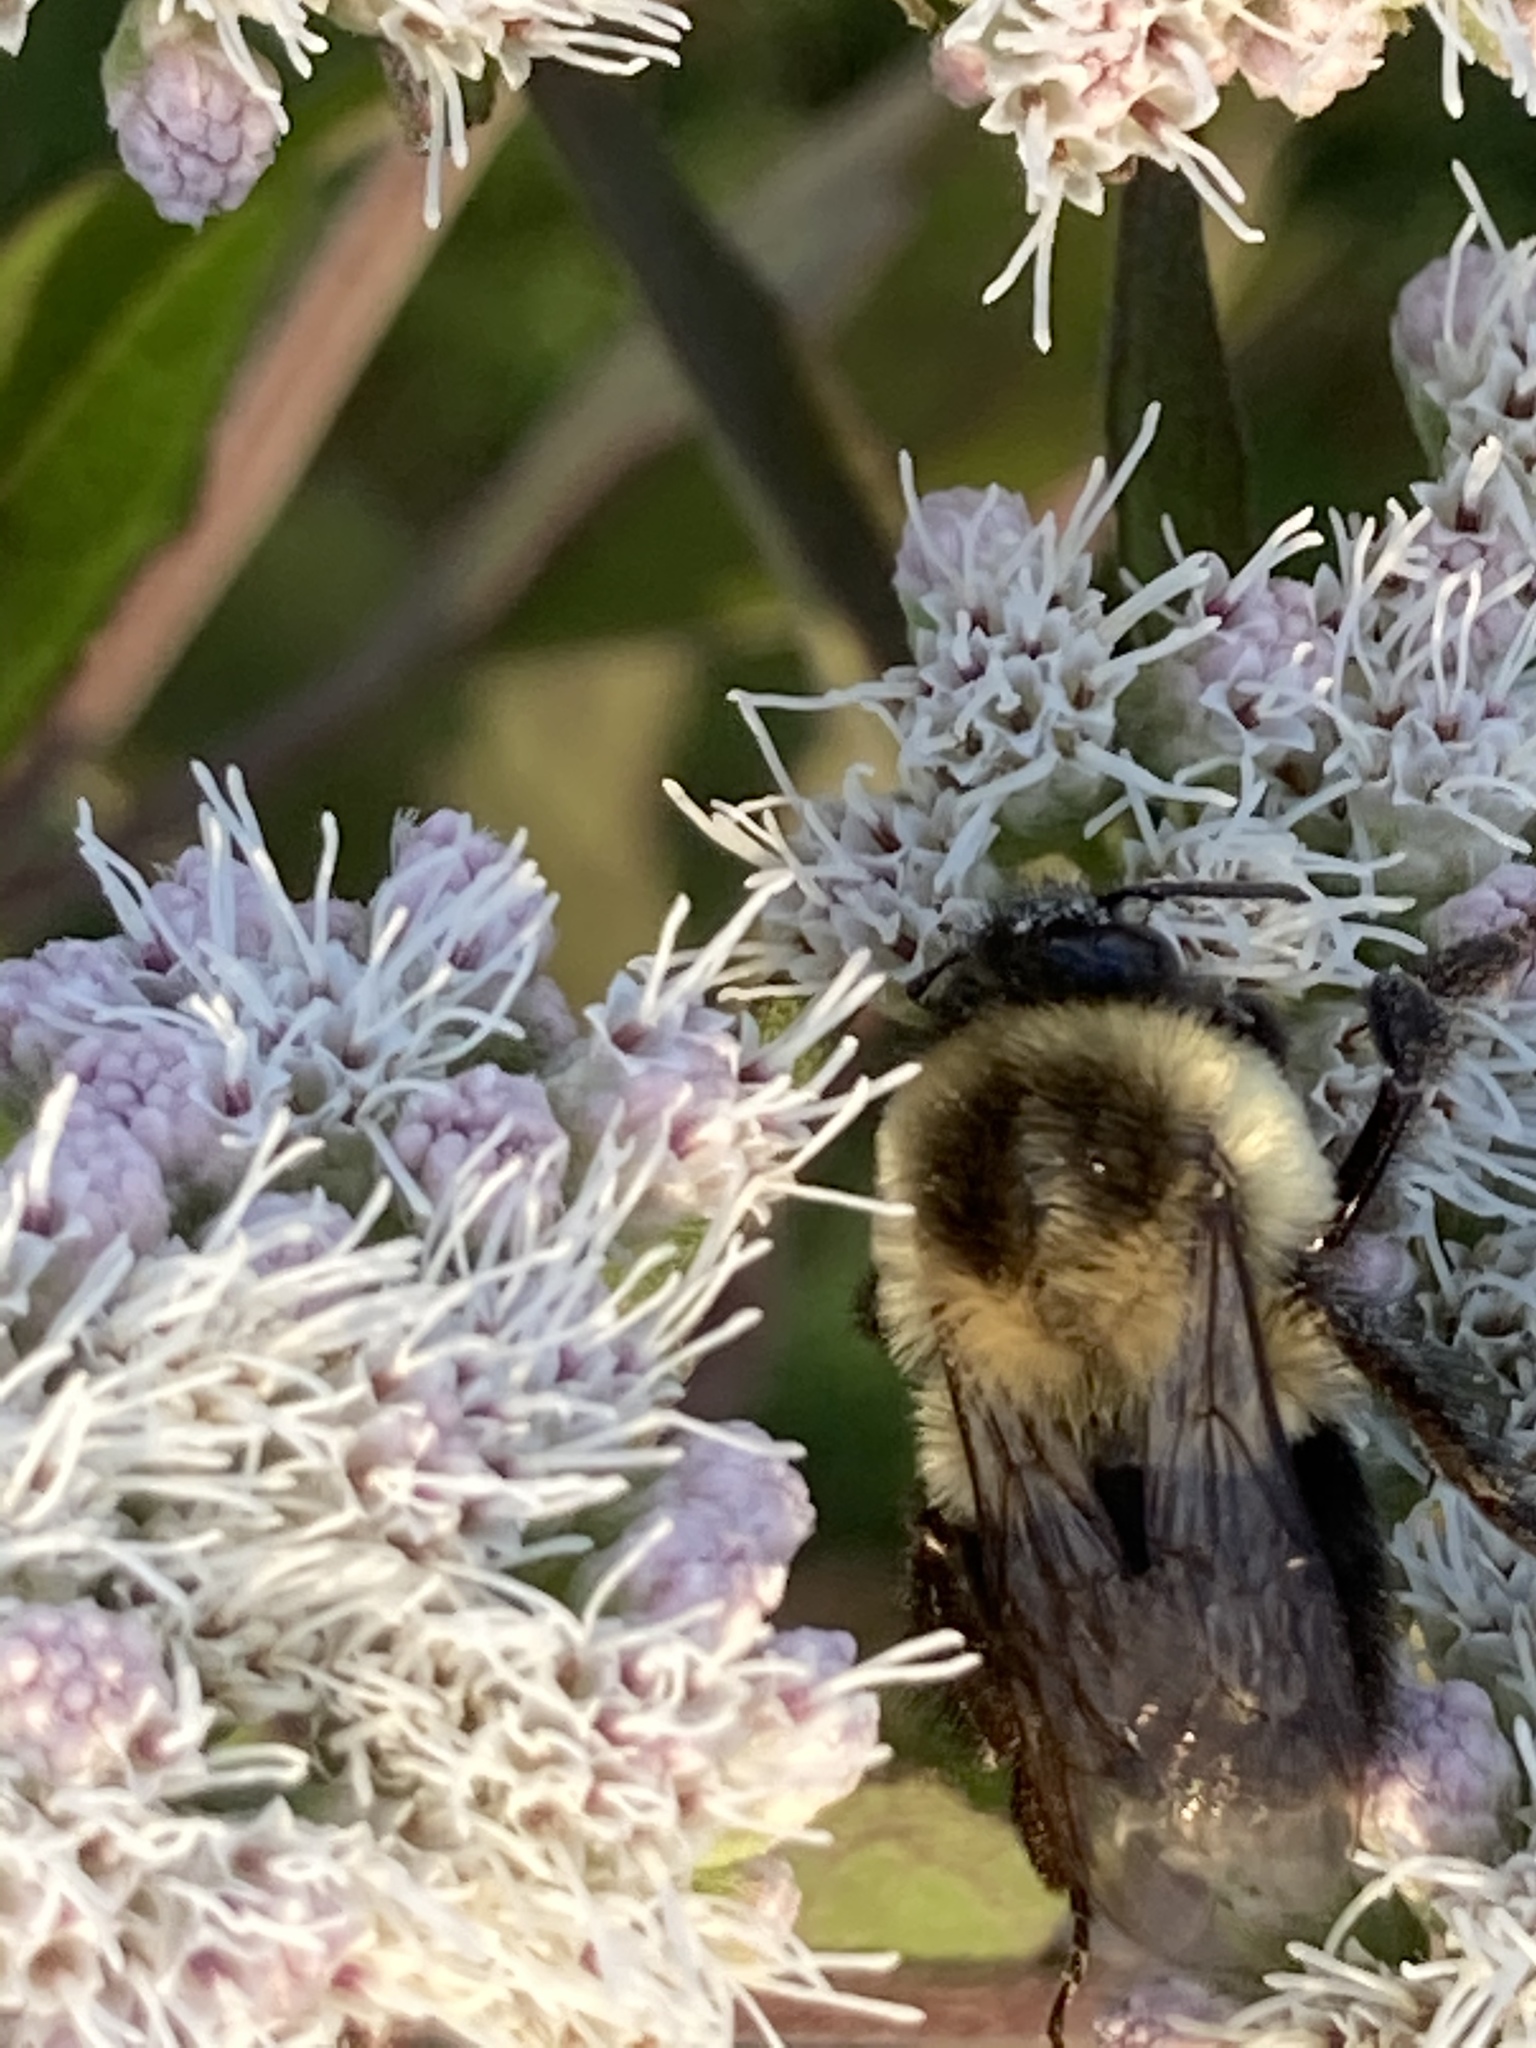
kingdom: Animalia
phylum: Arthropoda
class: Insecta
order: Hymenoptera
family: Apidae
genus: Bombus
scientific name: Bombus impatiens
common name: Common eastern bumble bee
